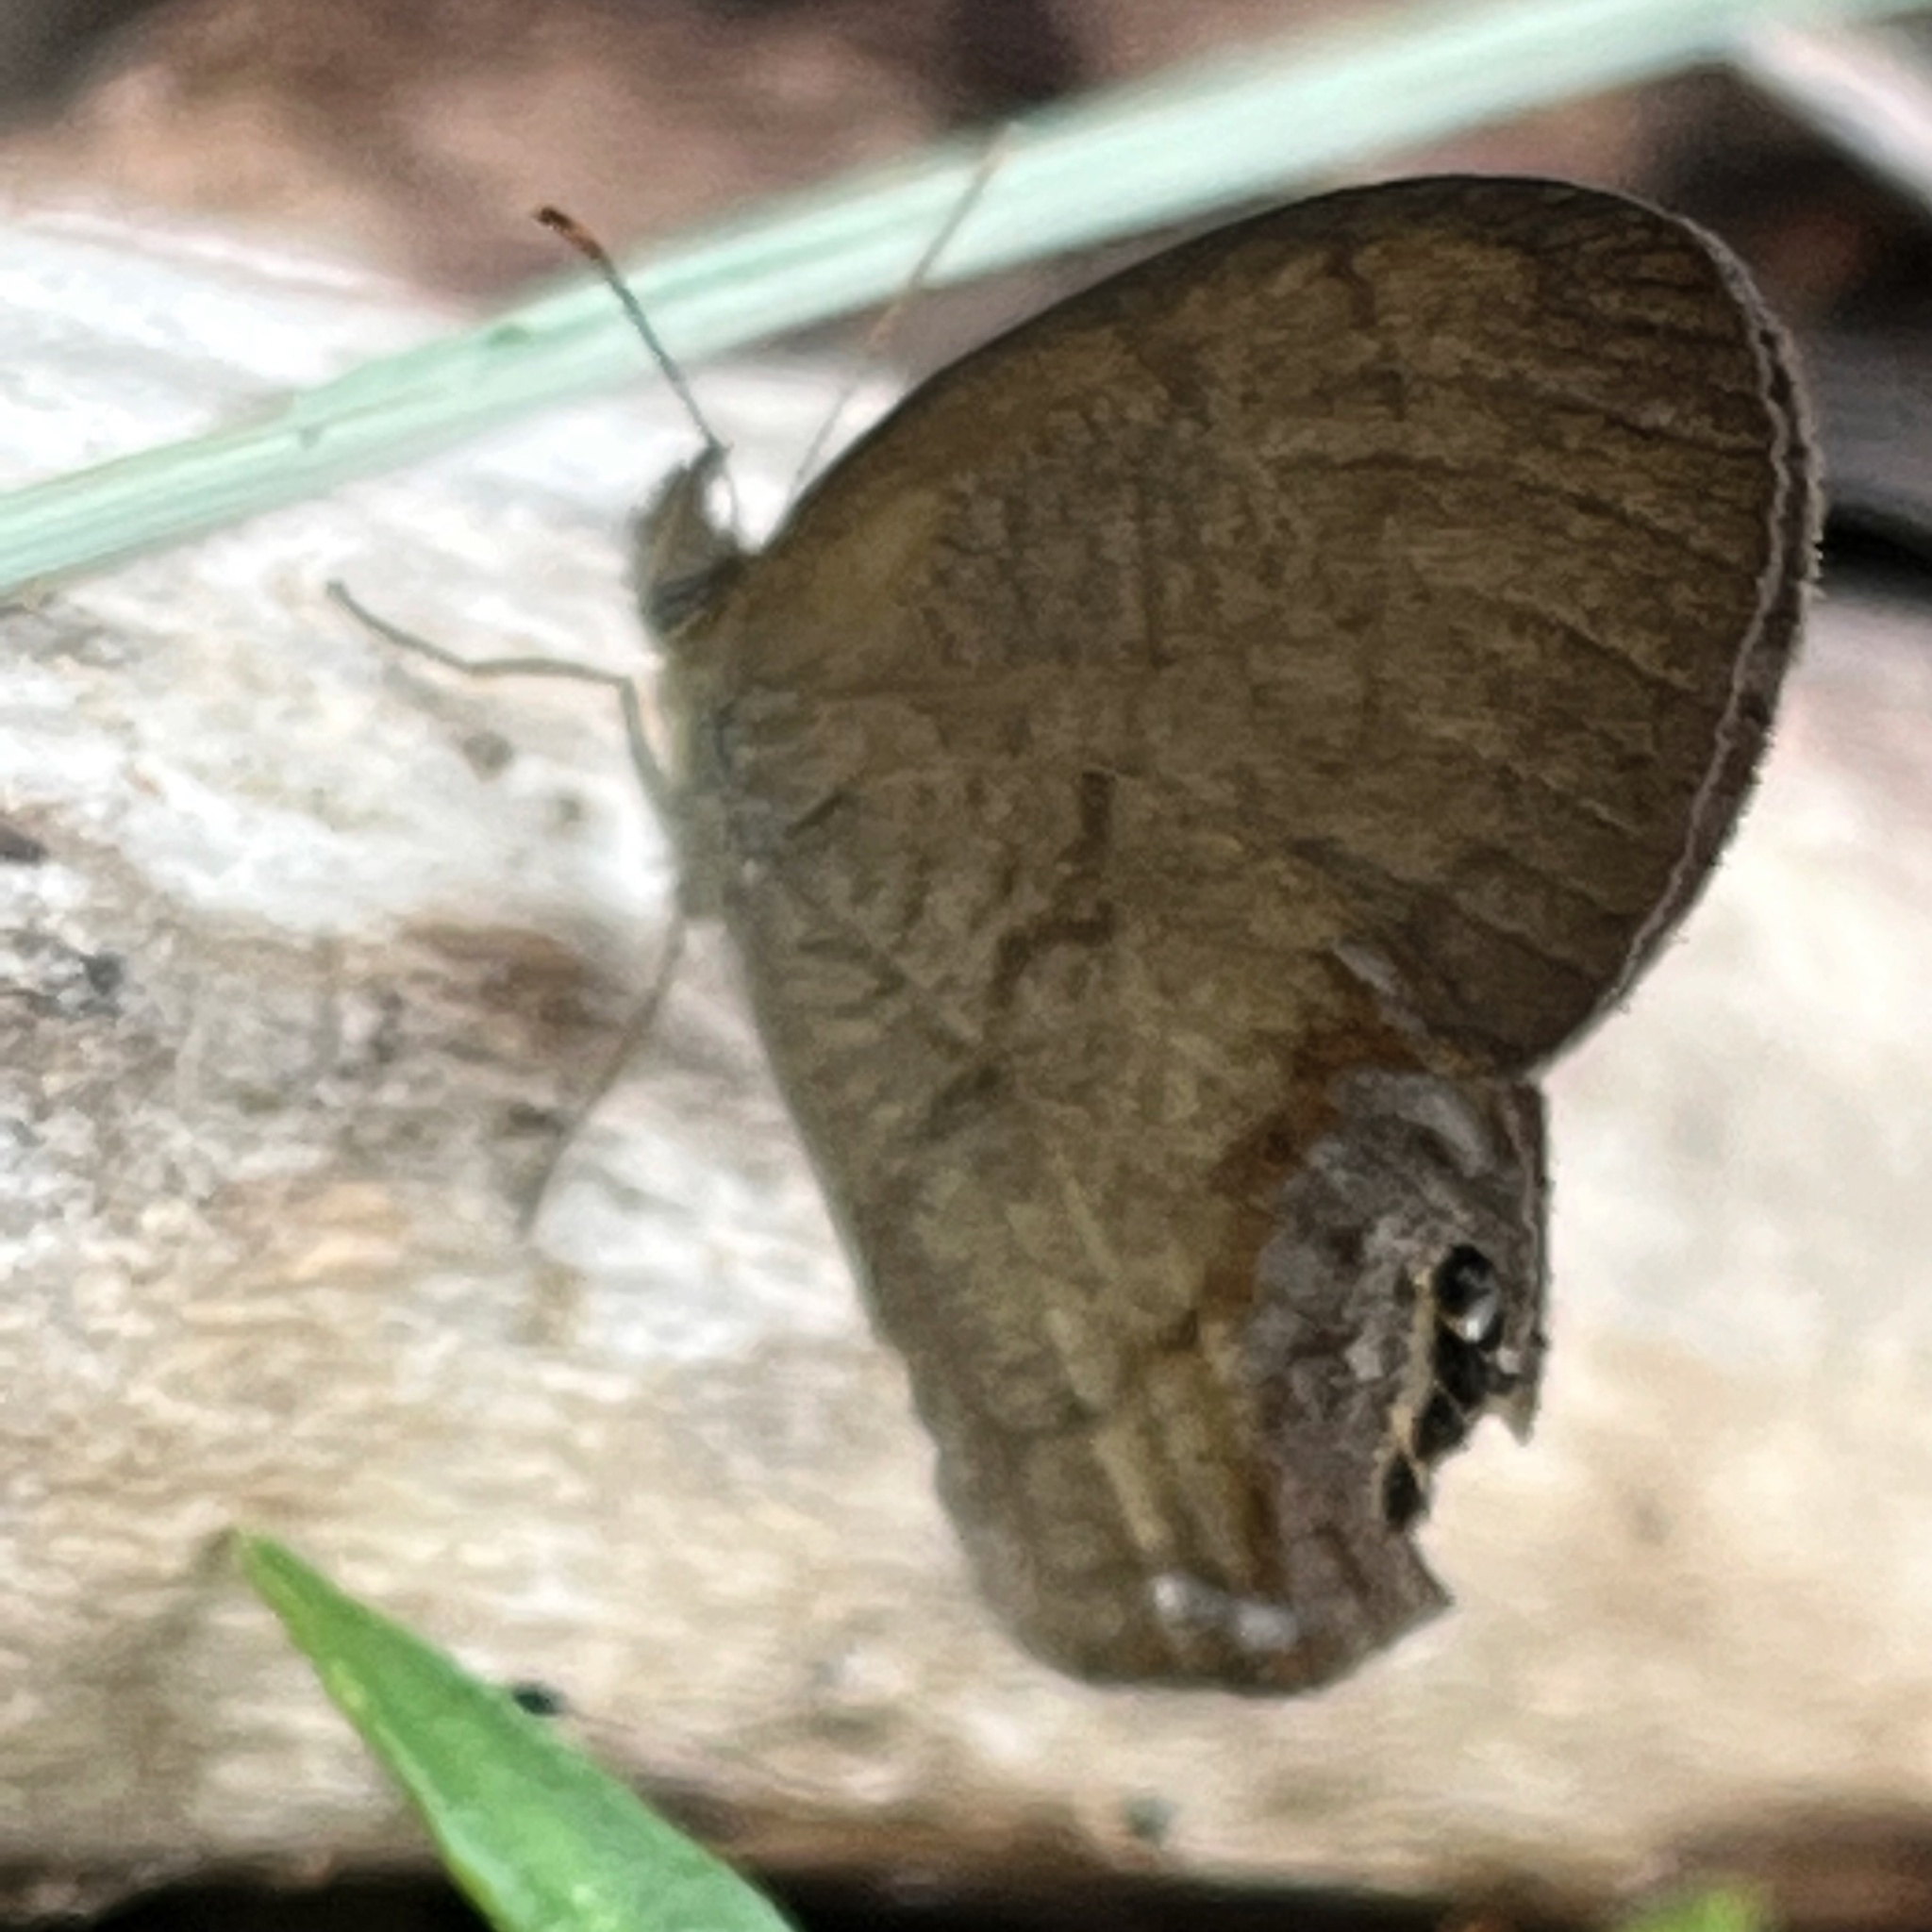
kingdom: Animalia
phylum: Arthropoda
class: Insecta
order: Lepidoptera
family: Nymphalidae
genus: Euptychia
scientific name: Euptychia cornelius
